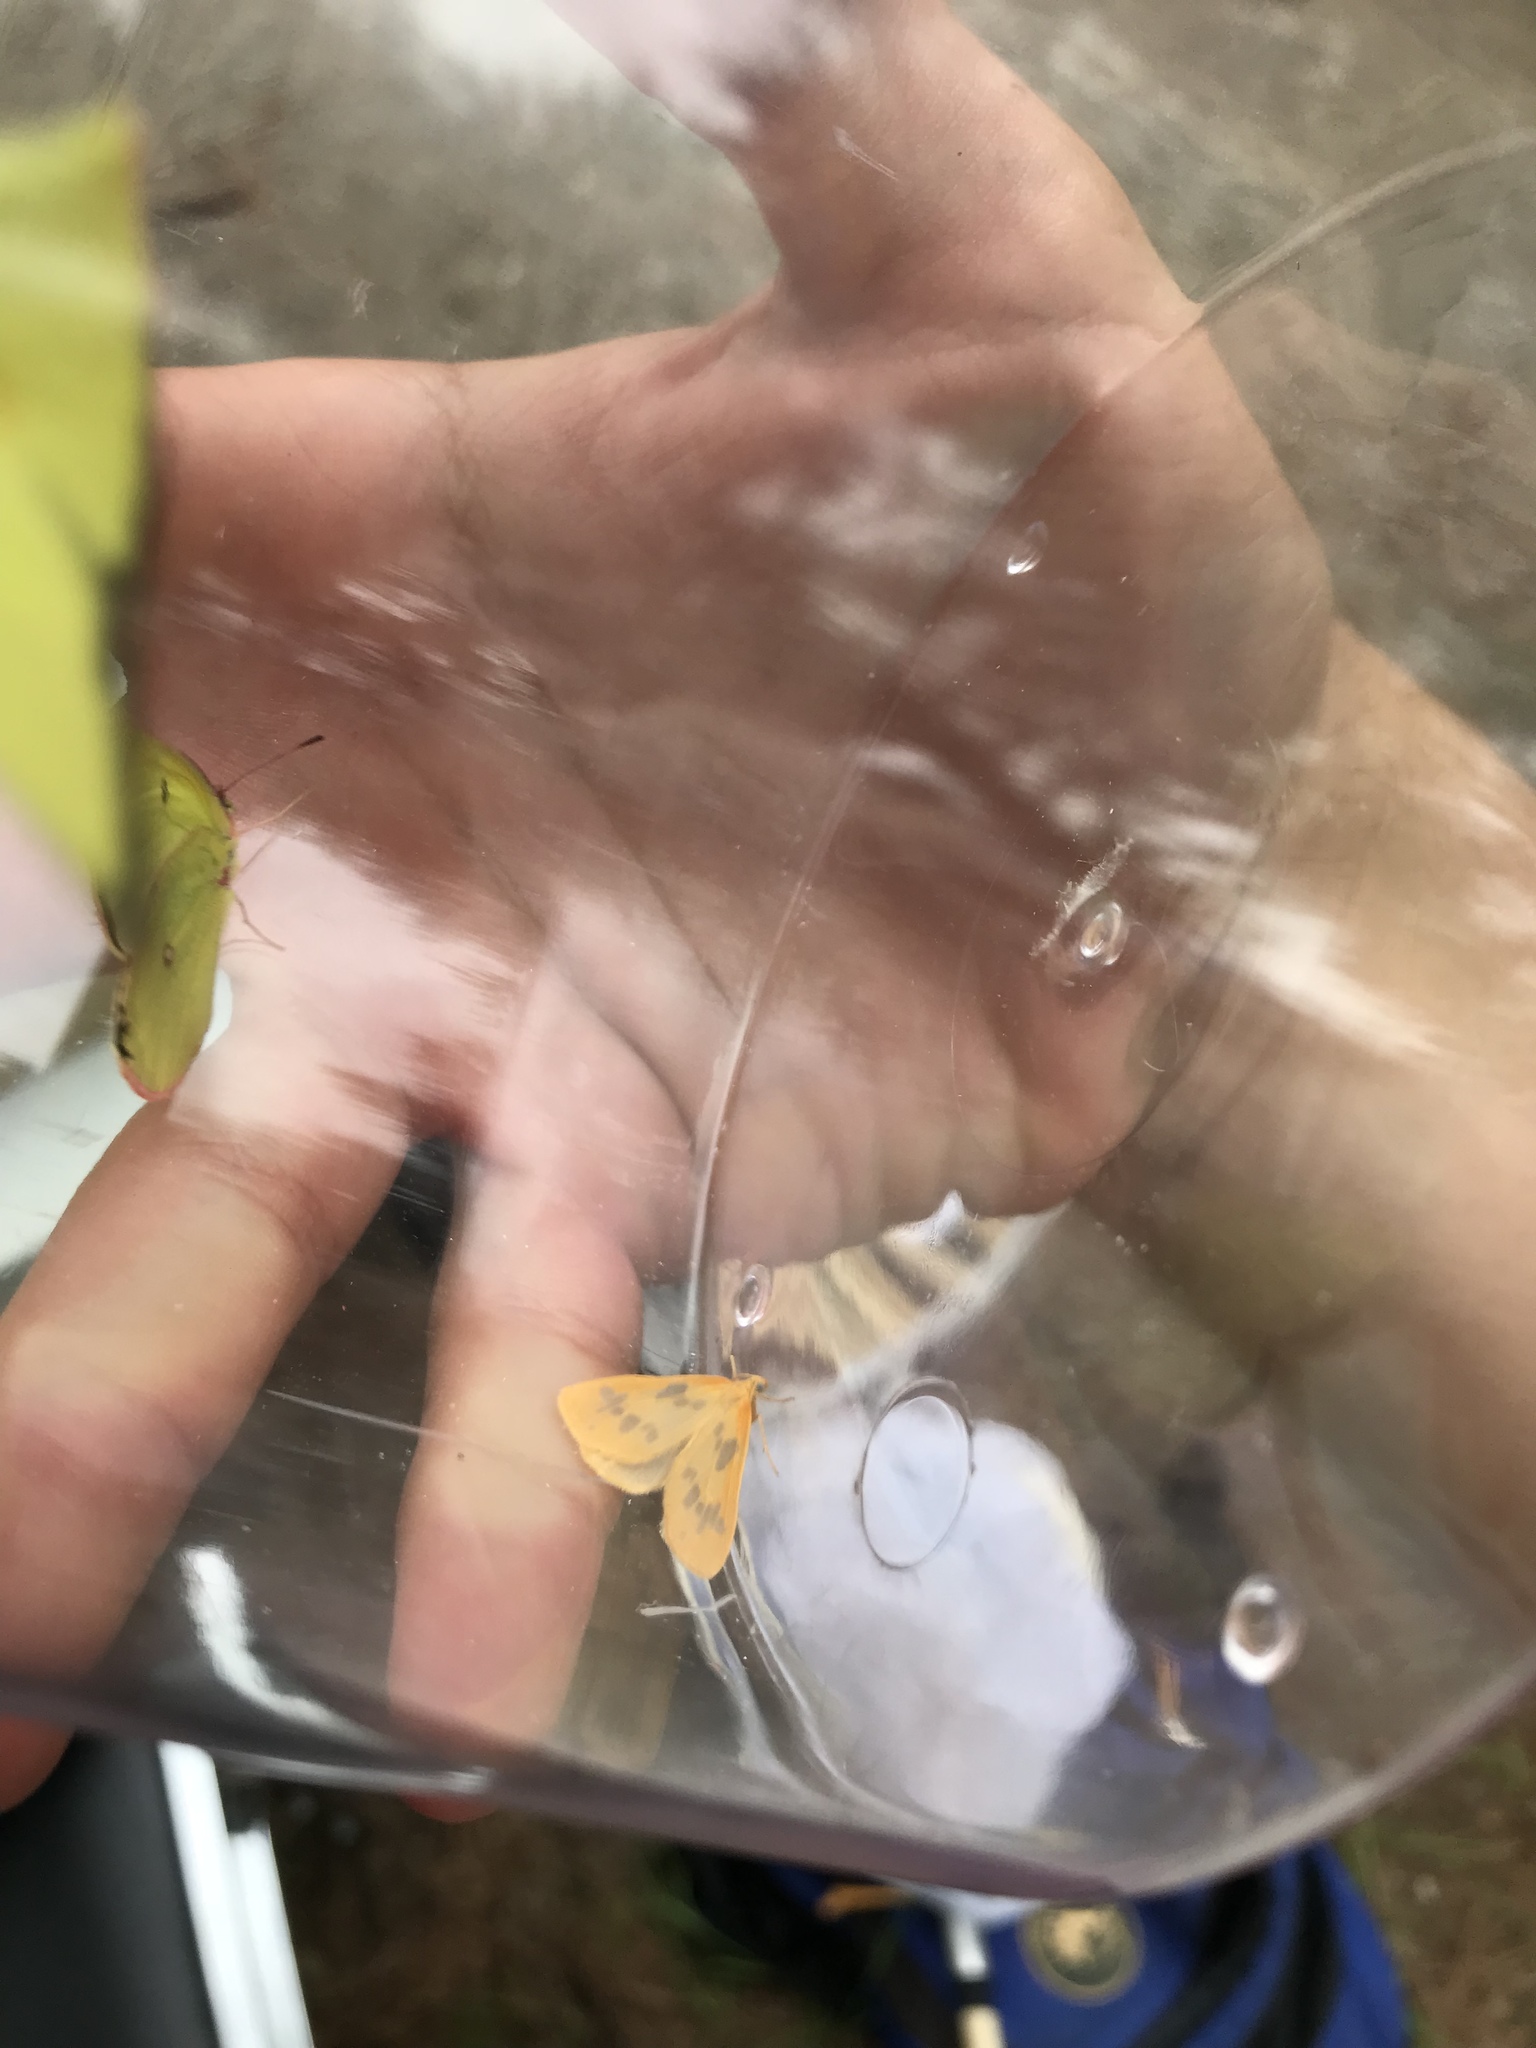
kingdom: Animalia
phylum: Arthropoda
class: Insecta
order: Lepidoptera
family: Geometridae
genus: Eubaphe
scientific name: Eubaphe mendica
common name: Beggar
